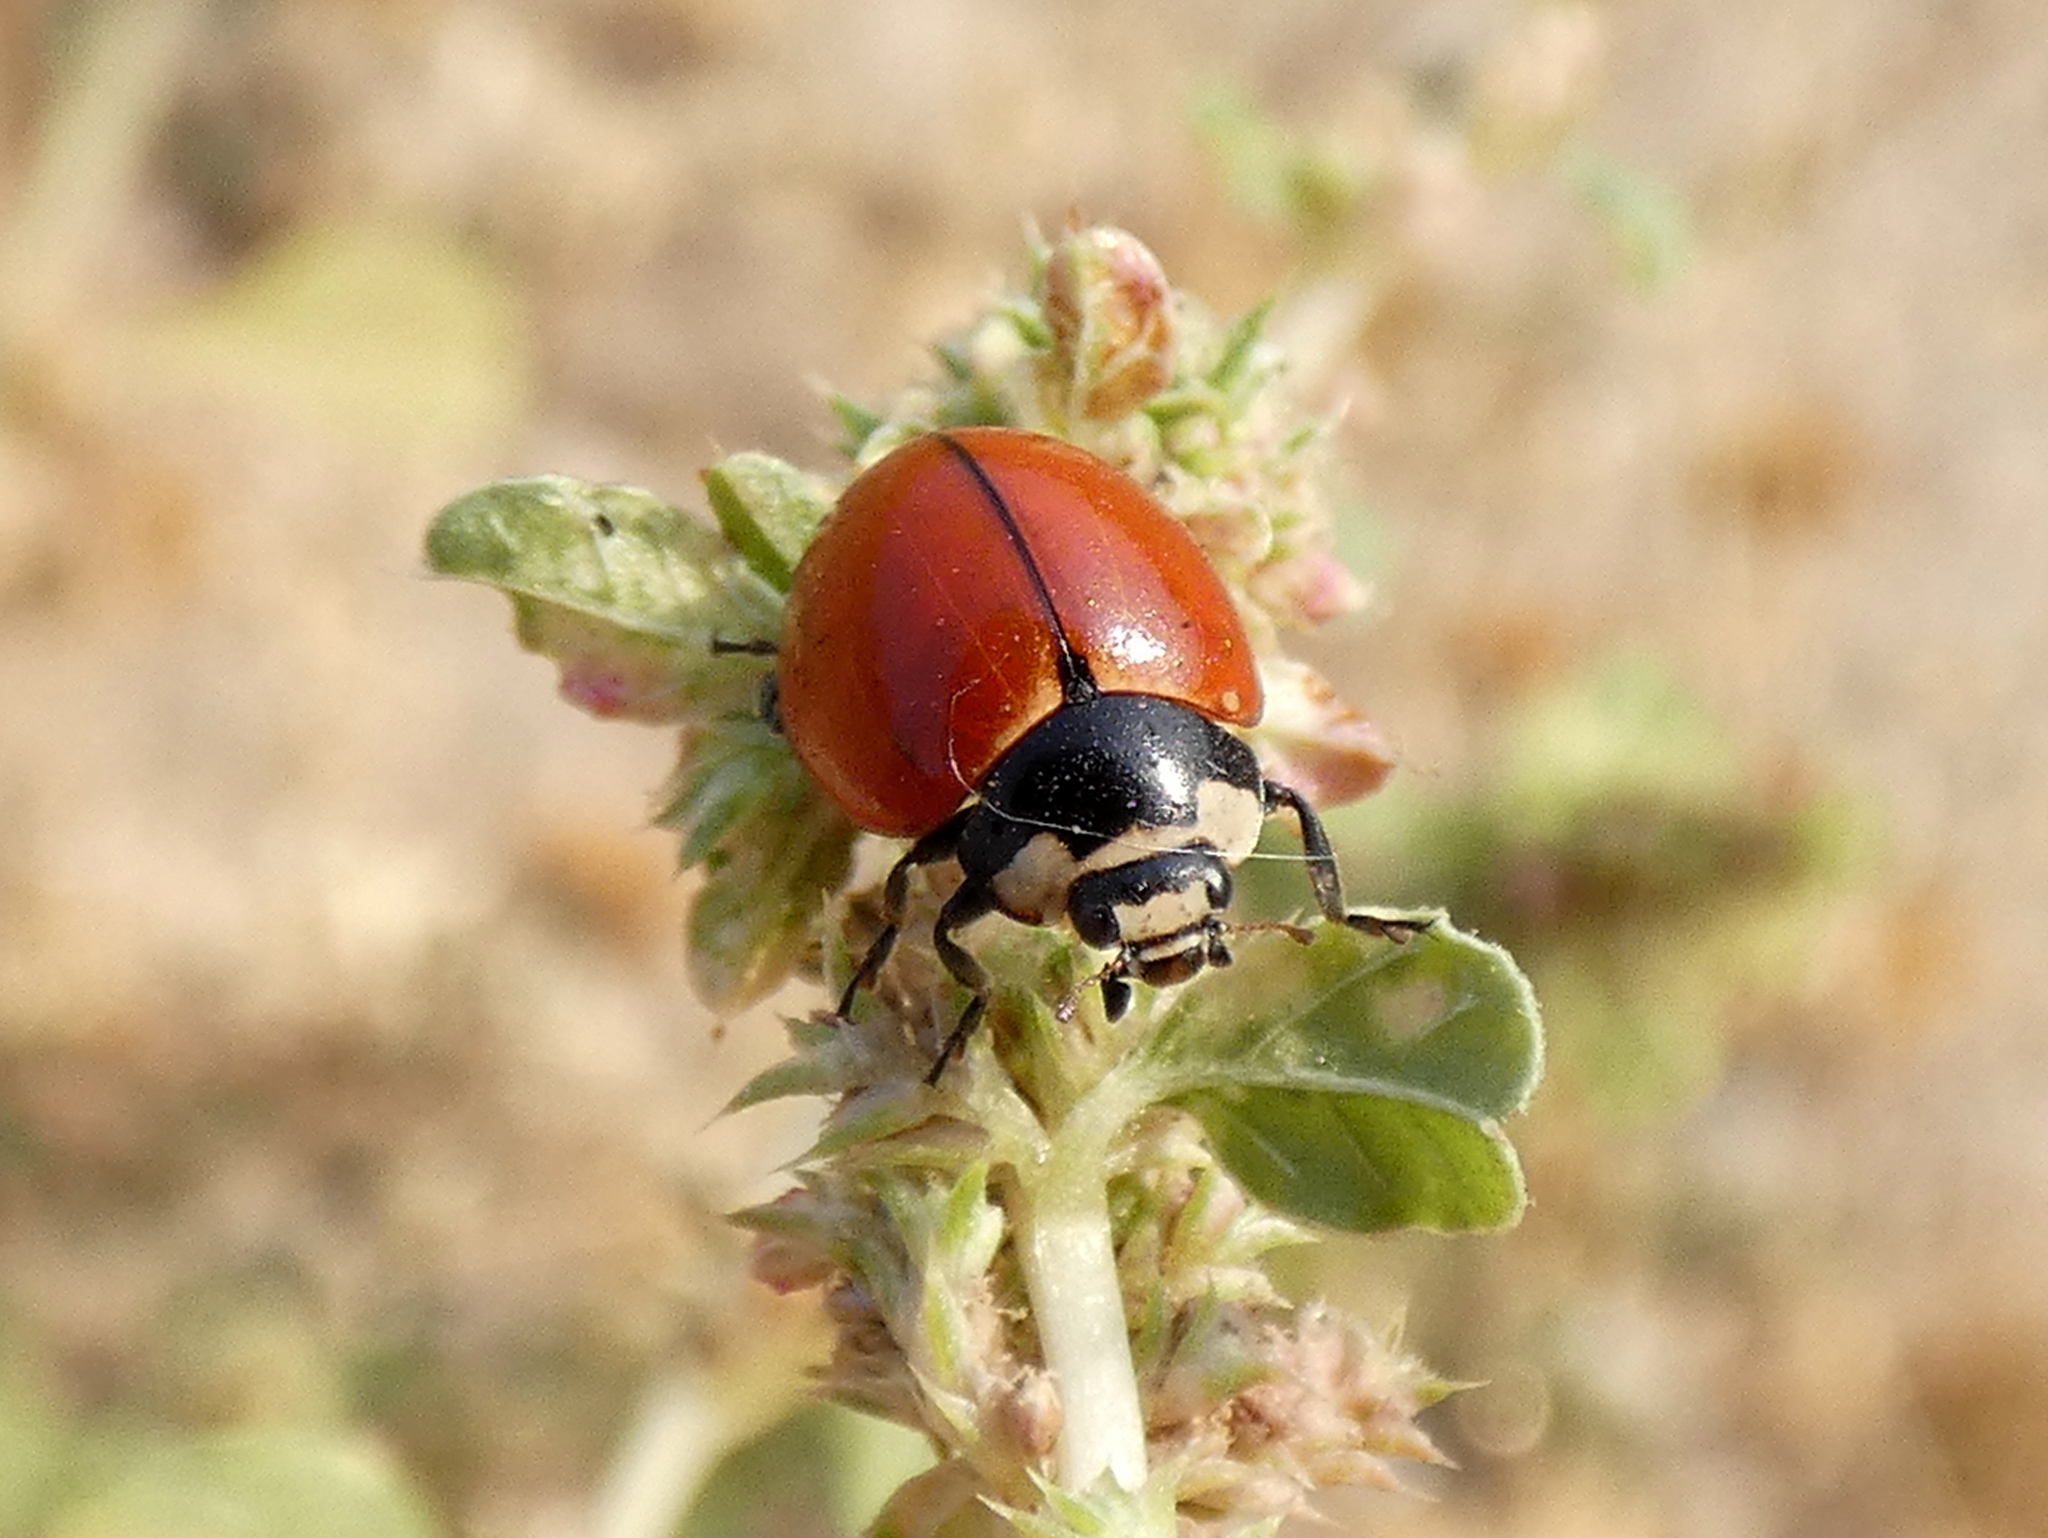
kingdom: Animalia
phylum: Arthropoda
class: Insecta
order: Coleoptera
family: Coccinellidae
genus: Coccinella
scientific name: Coccinella novemnotata
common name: Nine-spotted lady beetle
